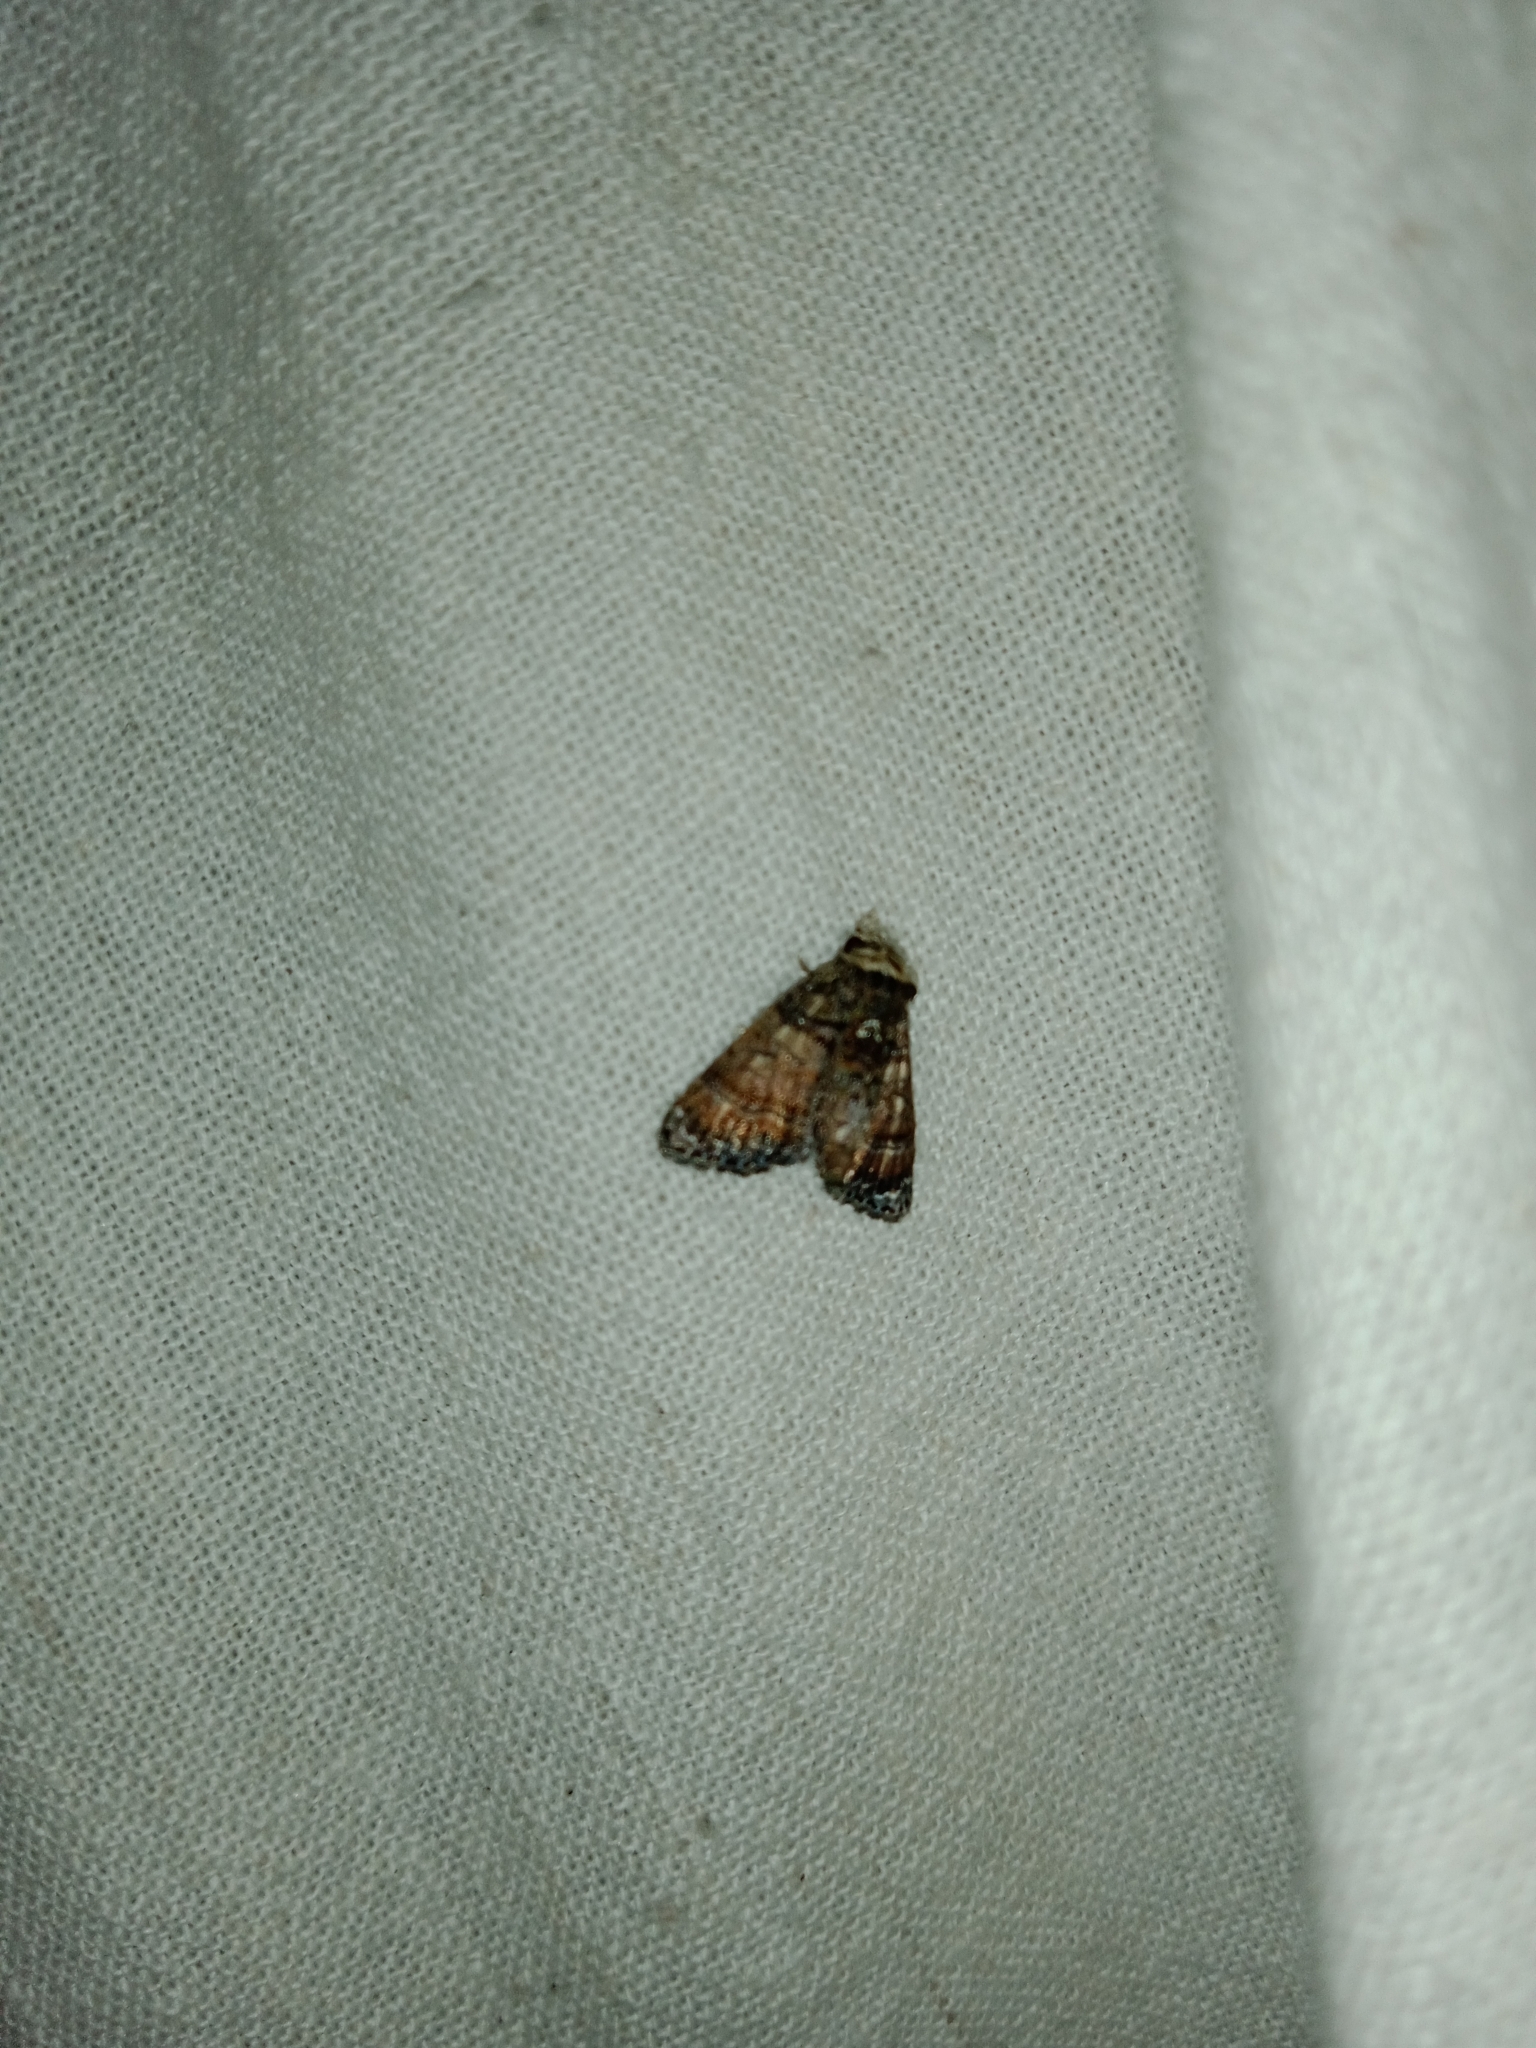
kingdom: Animalia
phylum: Arthropoda
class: Insecta
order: Lepidoptera
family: Euteliidae
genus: Chlumetia
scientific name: Chlumetia transversa
